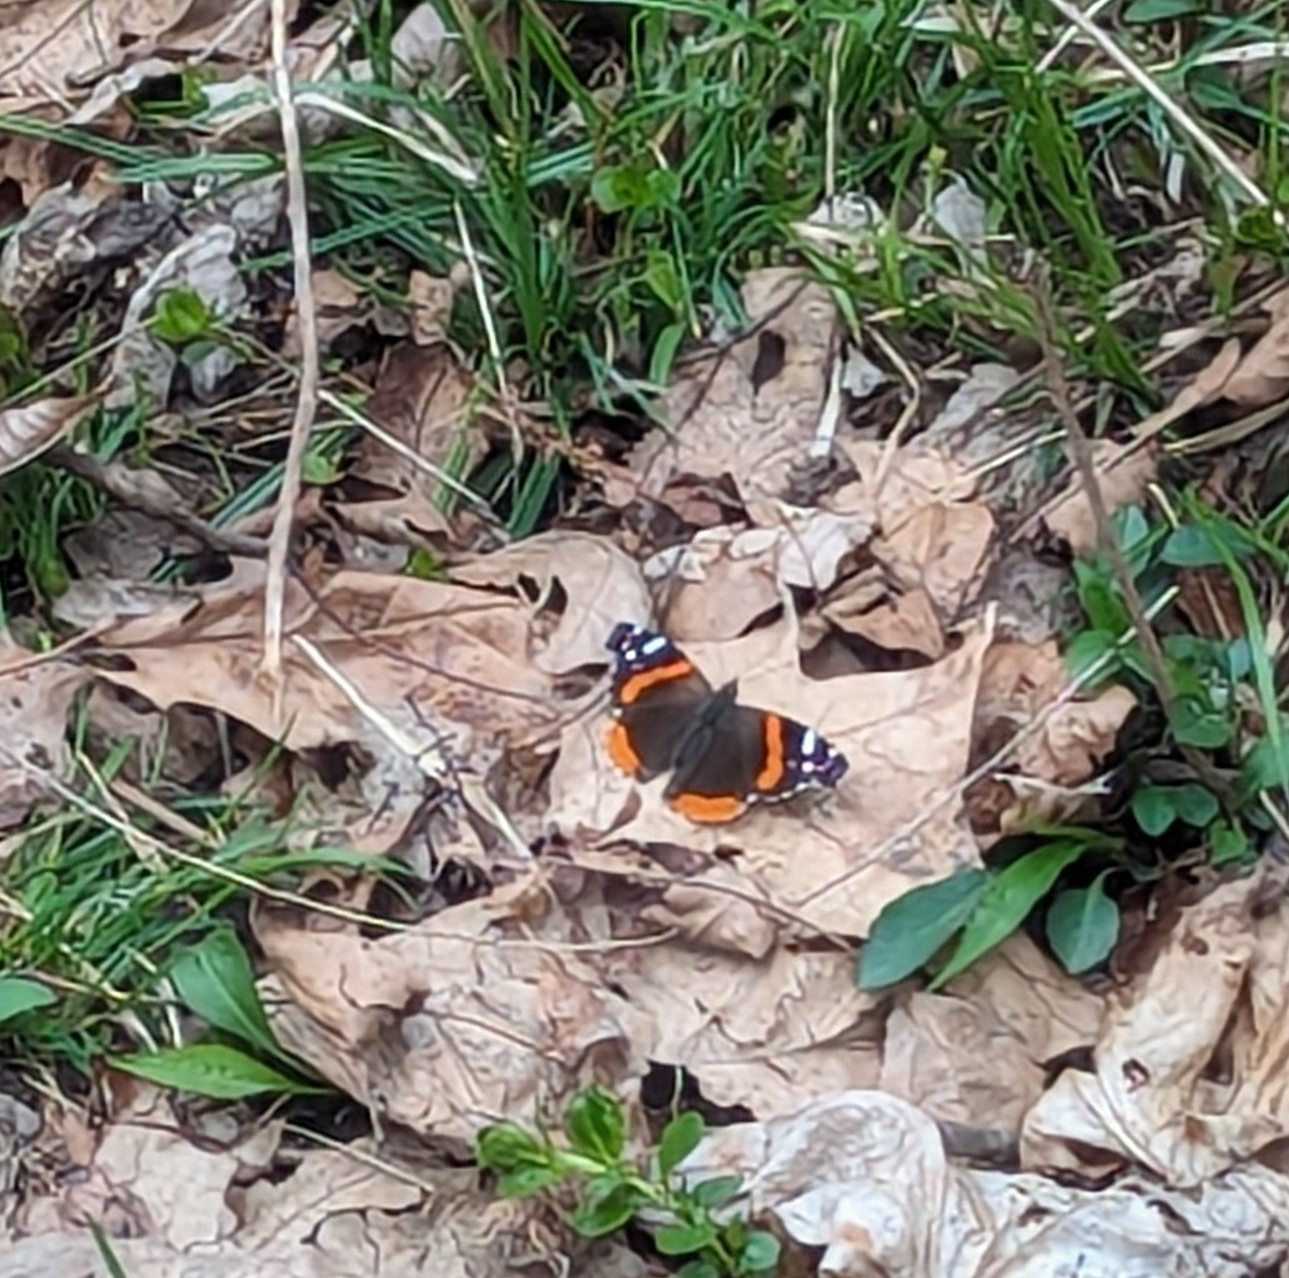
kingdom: Animalia
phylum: Arthropoda
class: Insecta
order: Lepidoptera
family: Nymphalidae
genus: Vanessa
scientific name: Vanessa atalanta
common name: Red admiral
